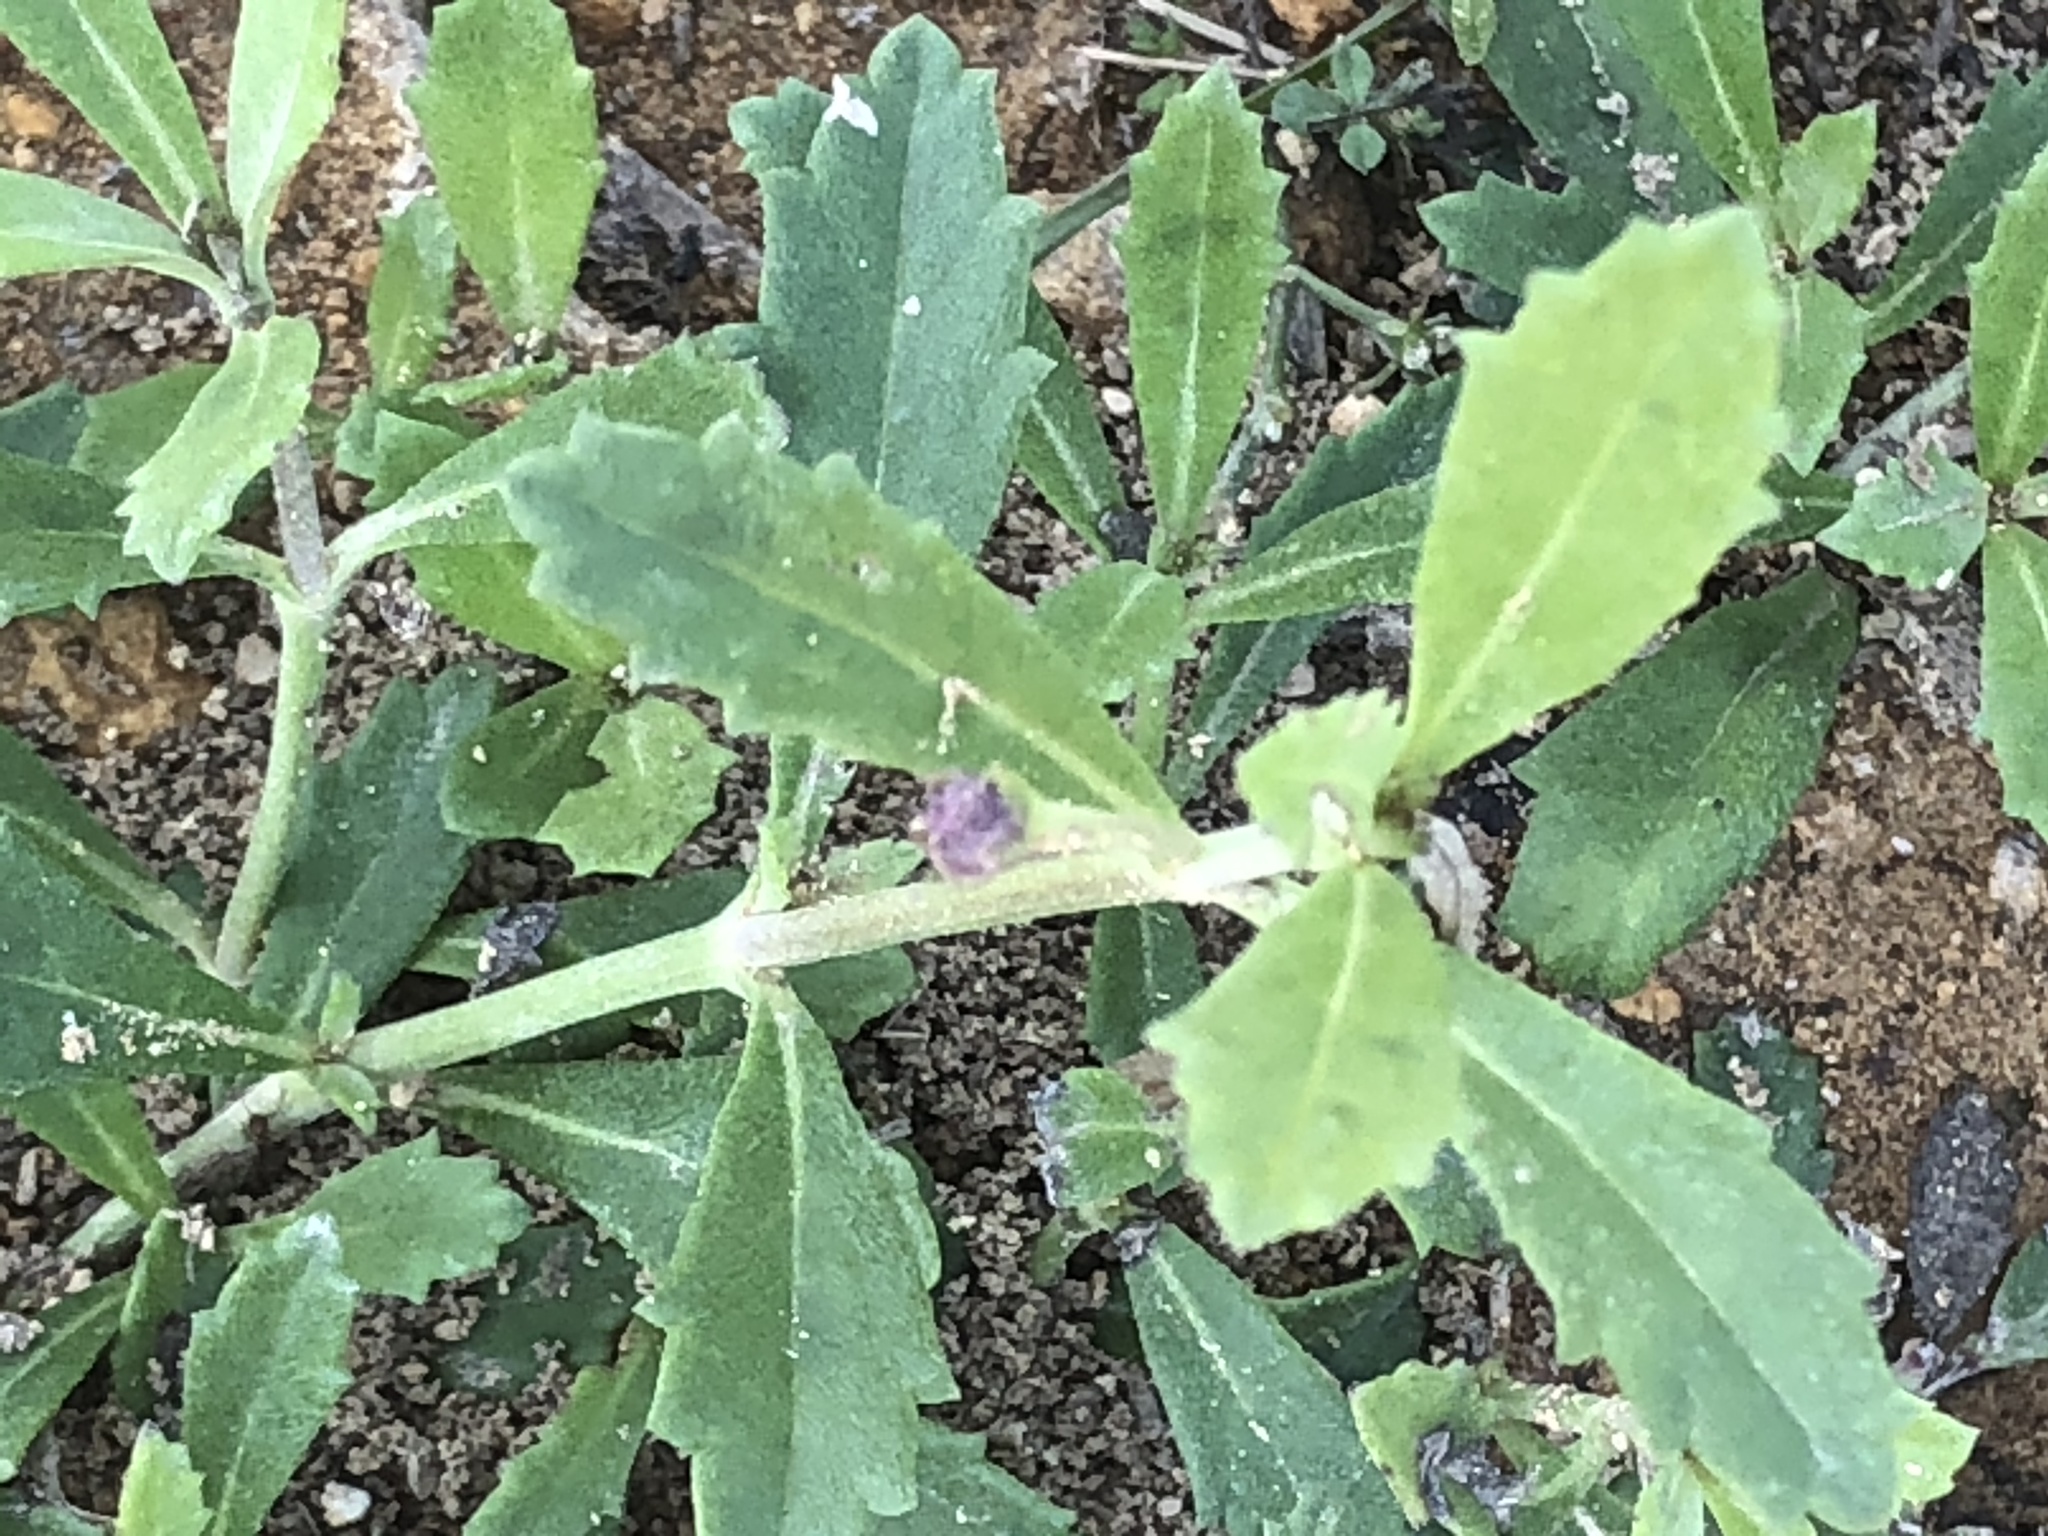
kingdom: Plantae
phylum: Tracheophyta
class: Magnoliopsida
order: Lamiales
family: Verbenaceae
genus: Phyla
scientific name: Phyla nodiflora
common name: Frogfruit
